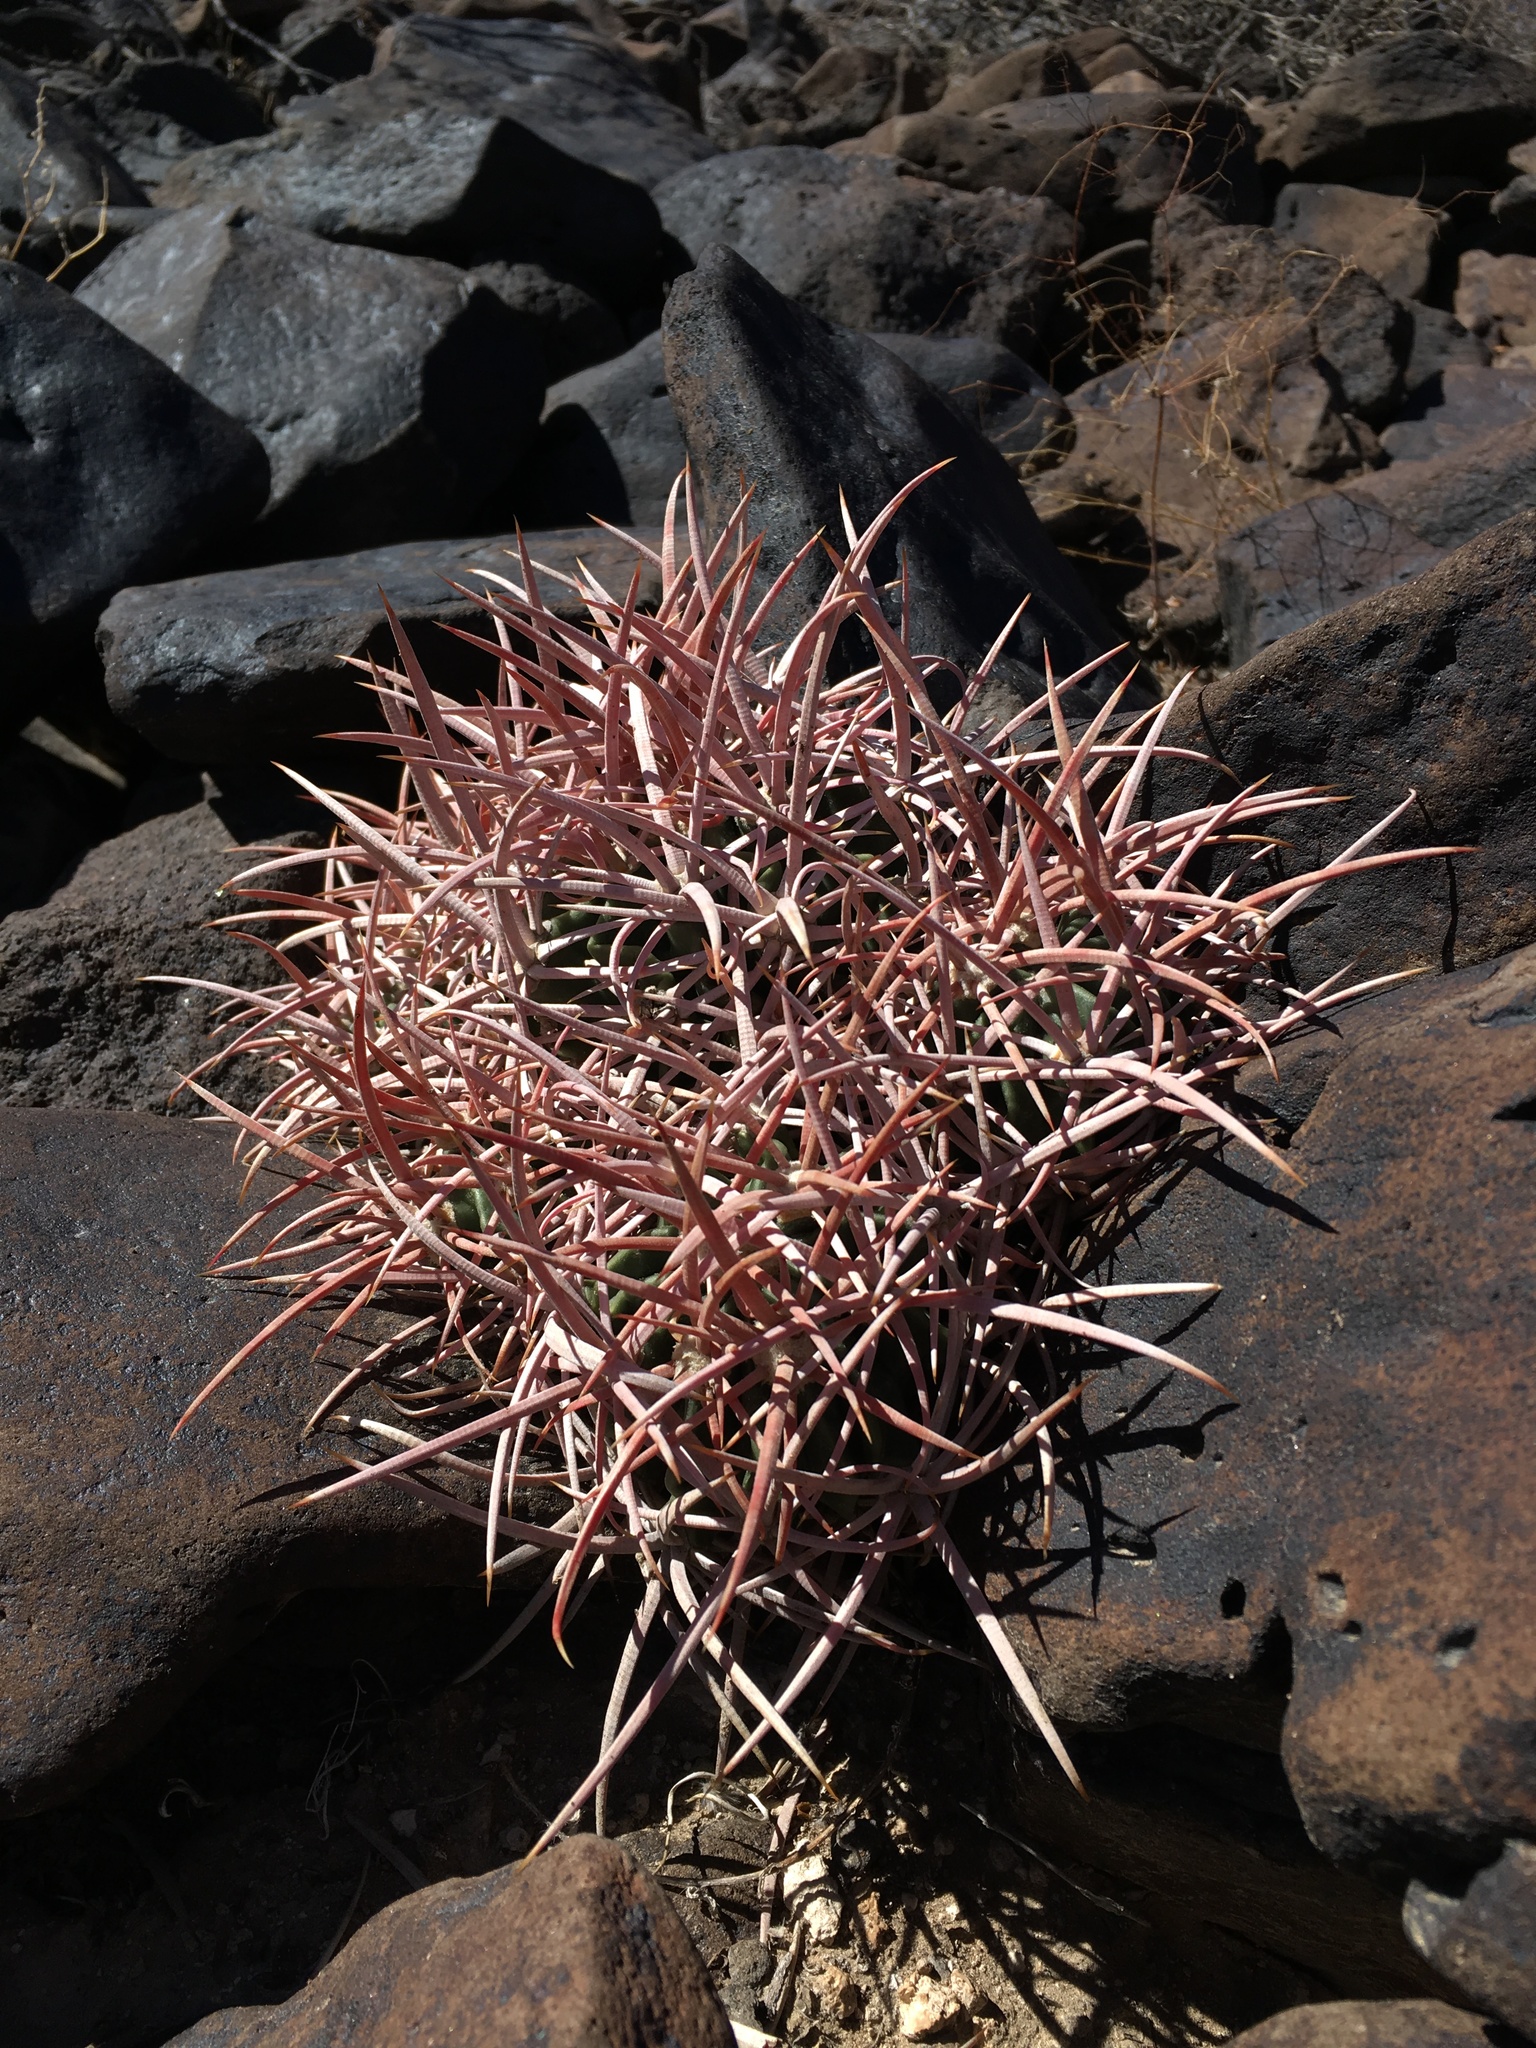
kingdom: Plantae
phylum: Tracheophyta
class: Magnoliopsida
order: Caryophyllales
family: Cactaceae
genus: Echinocactus
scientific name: Echinocactus polycephalus
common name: Cottontop cactus
